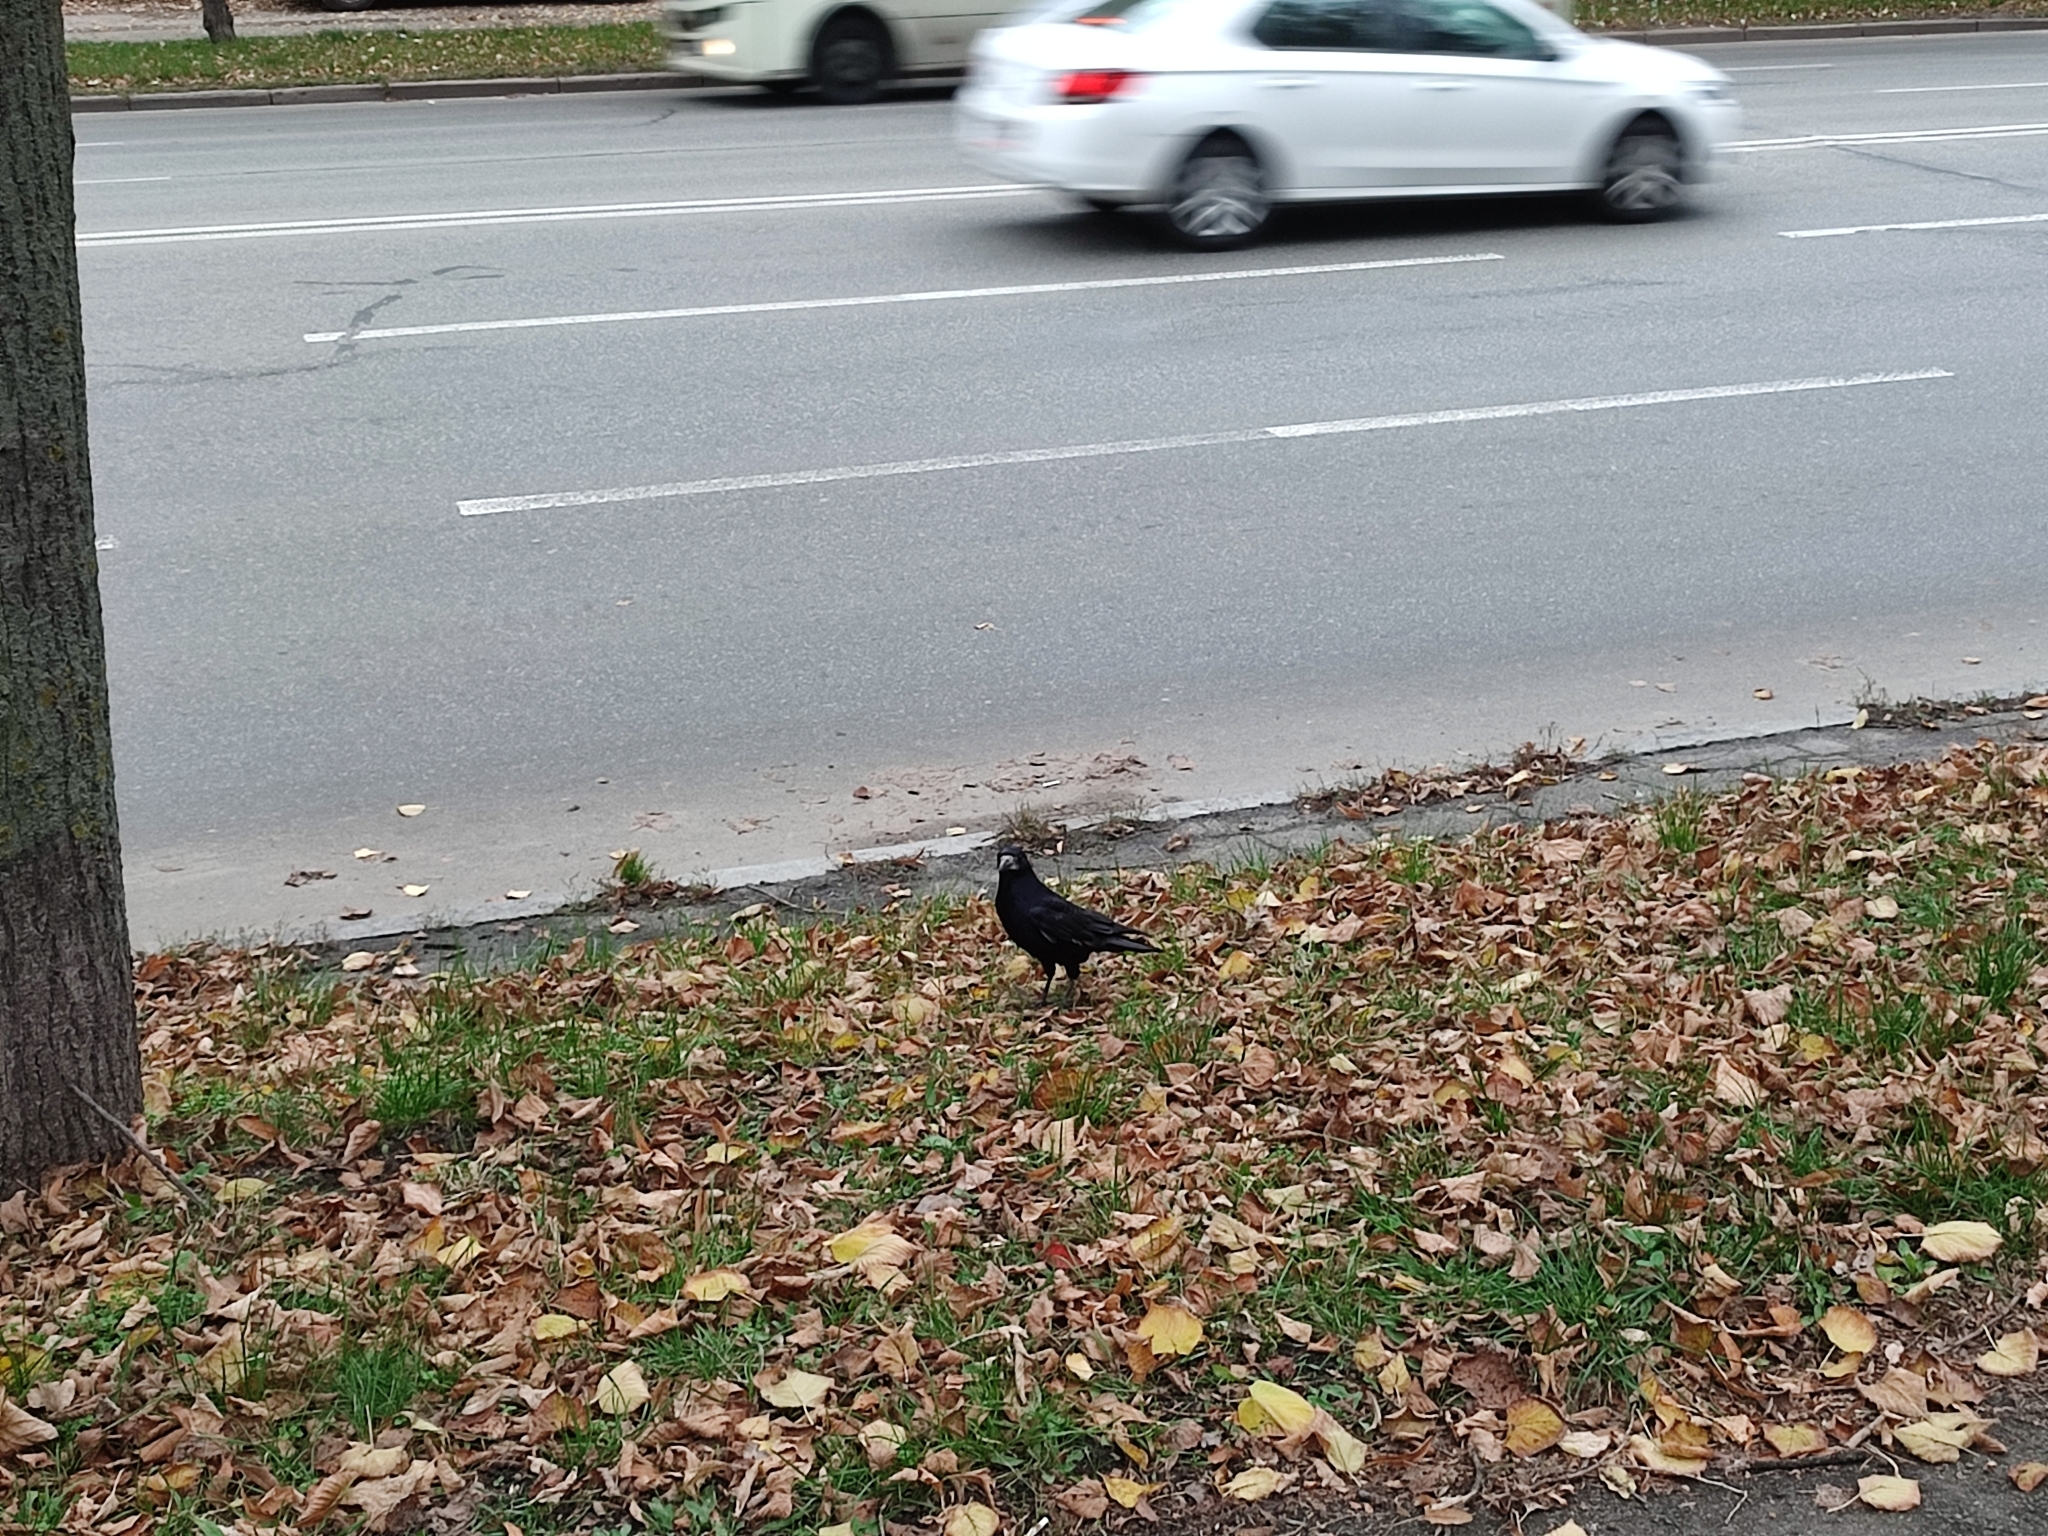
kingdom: Animalia
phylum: Chordata
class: Aves
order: Passeriformes
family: Corvidae
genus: Corvus
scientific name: Corvus frugilegus
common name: Rook
